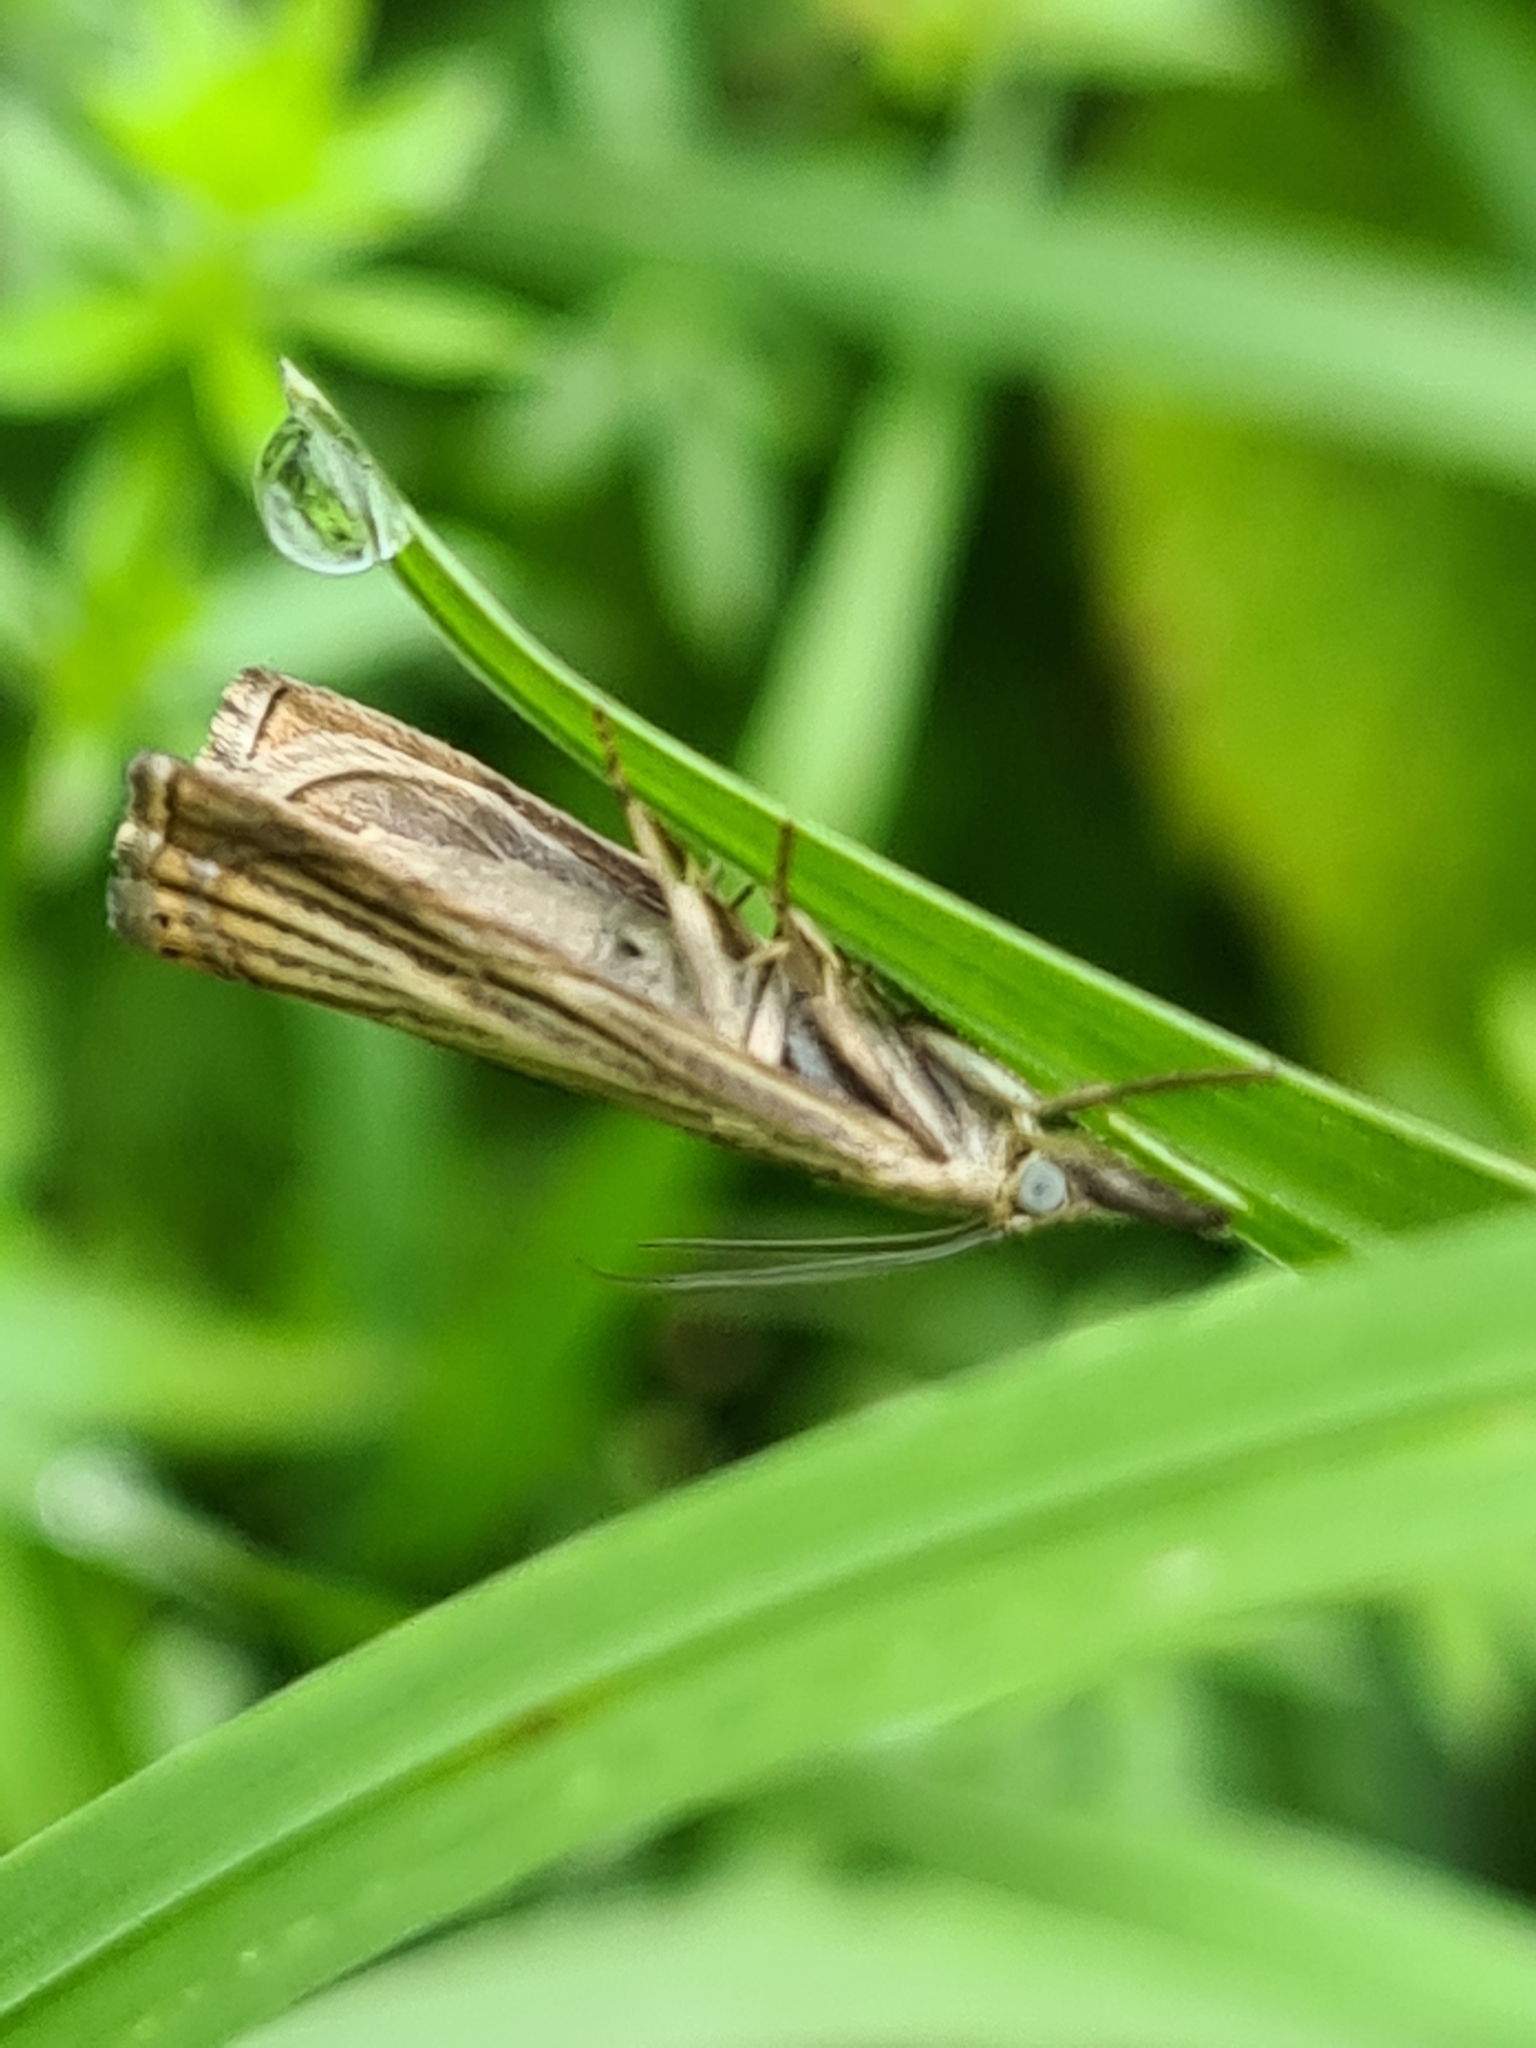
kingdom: Animalia
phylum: Arthropoda
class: Insecta
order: Lepidoptera
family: Crambidae
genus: Chrysoteuchia
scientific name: Chrysoteuchia culmella
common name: Garden grass-veneer
